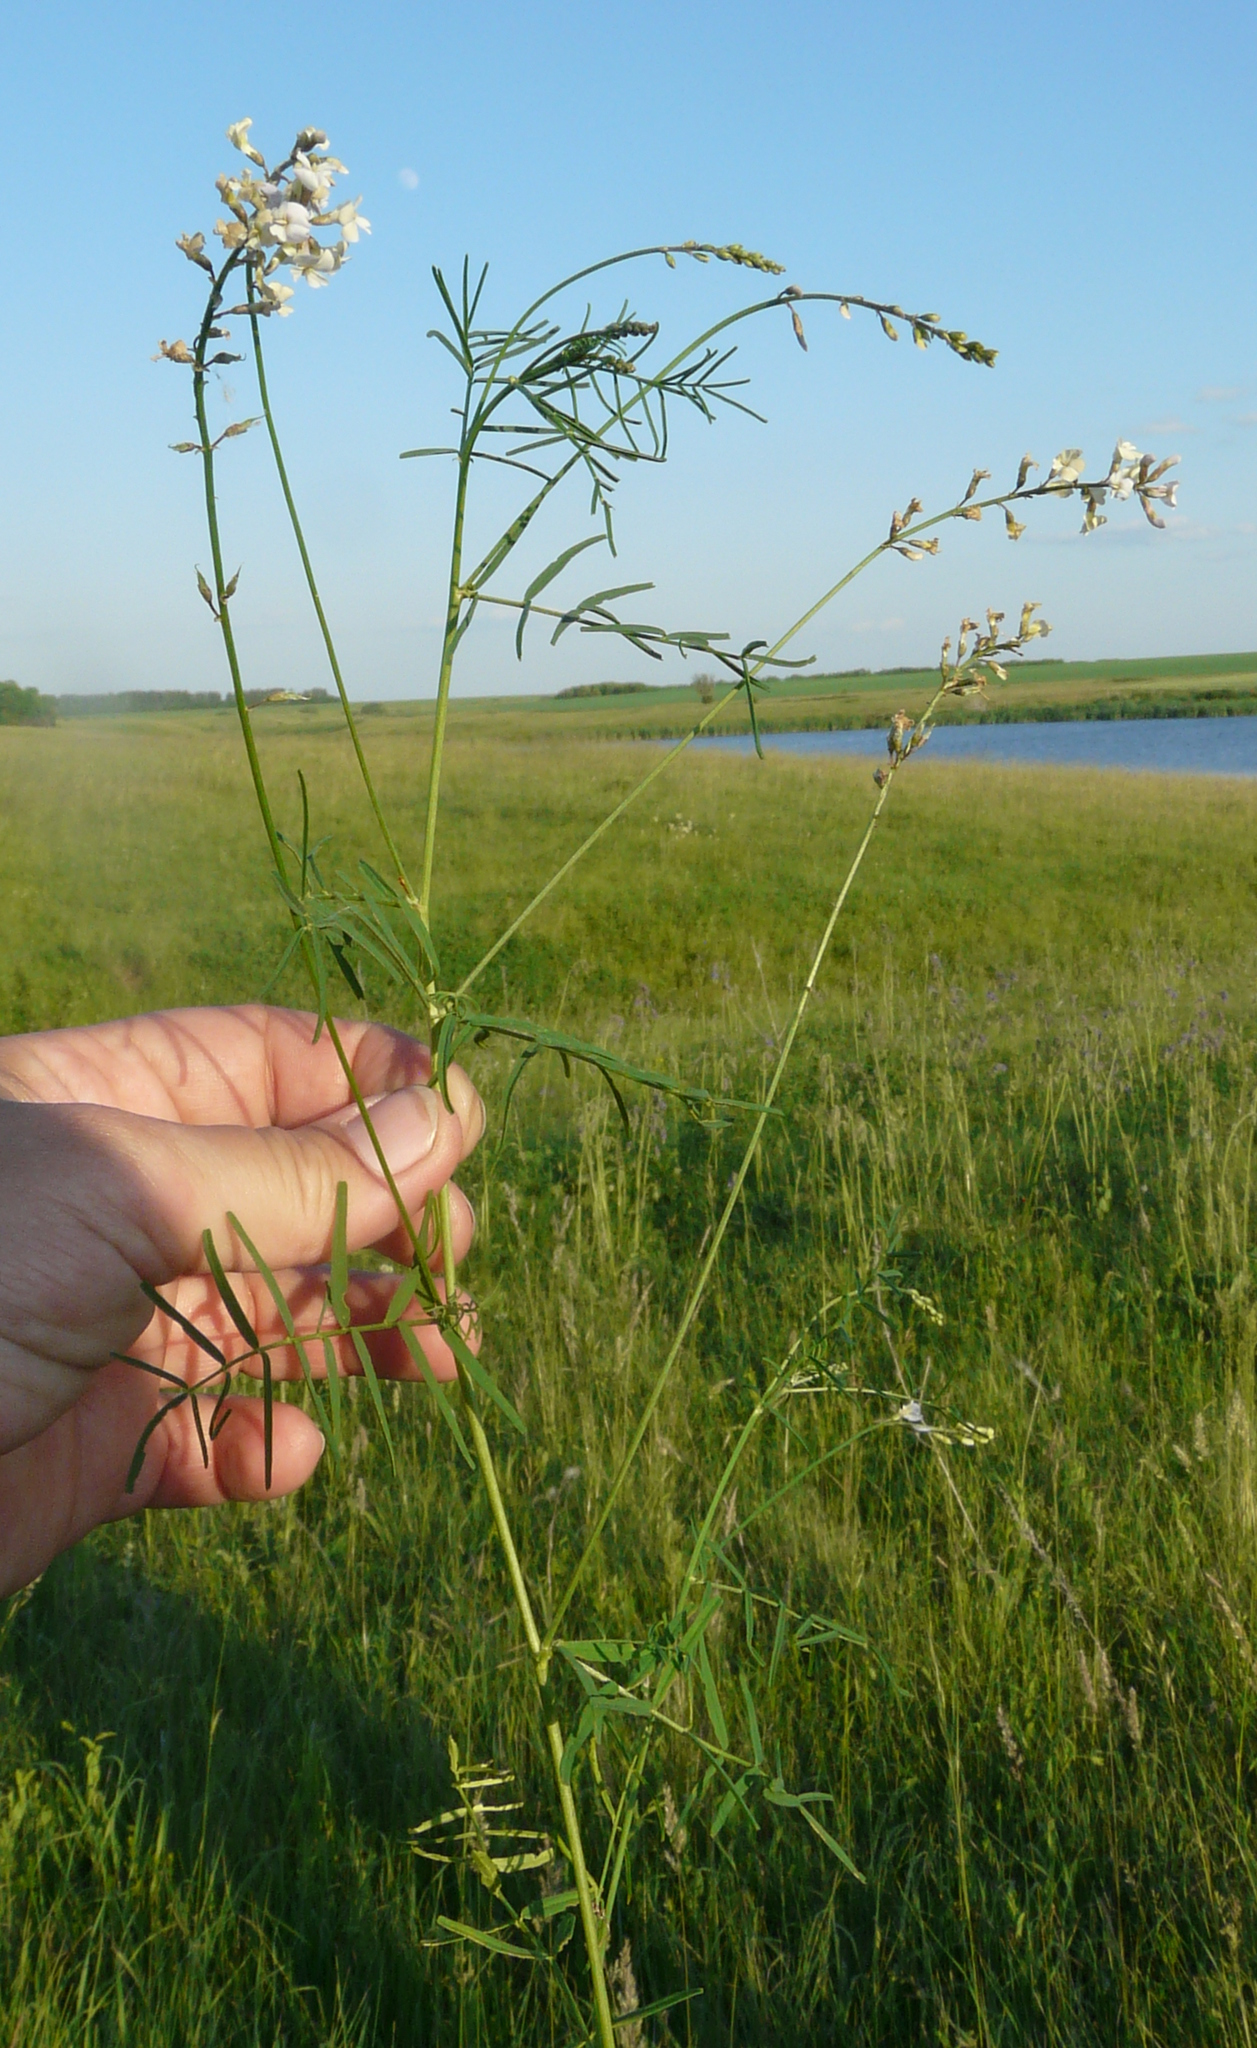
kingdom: Plantae
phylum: Tracheophyta
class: Magnoliopsida
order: Fabales
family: Fabaceae
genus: Astragalus
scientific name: Astragalus austriacus
